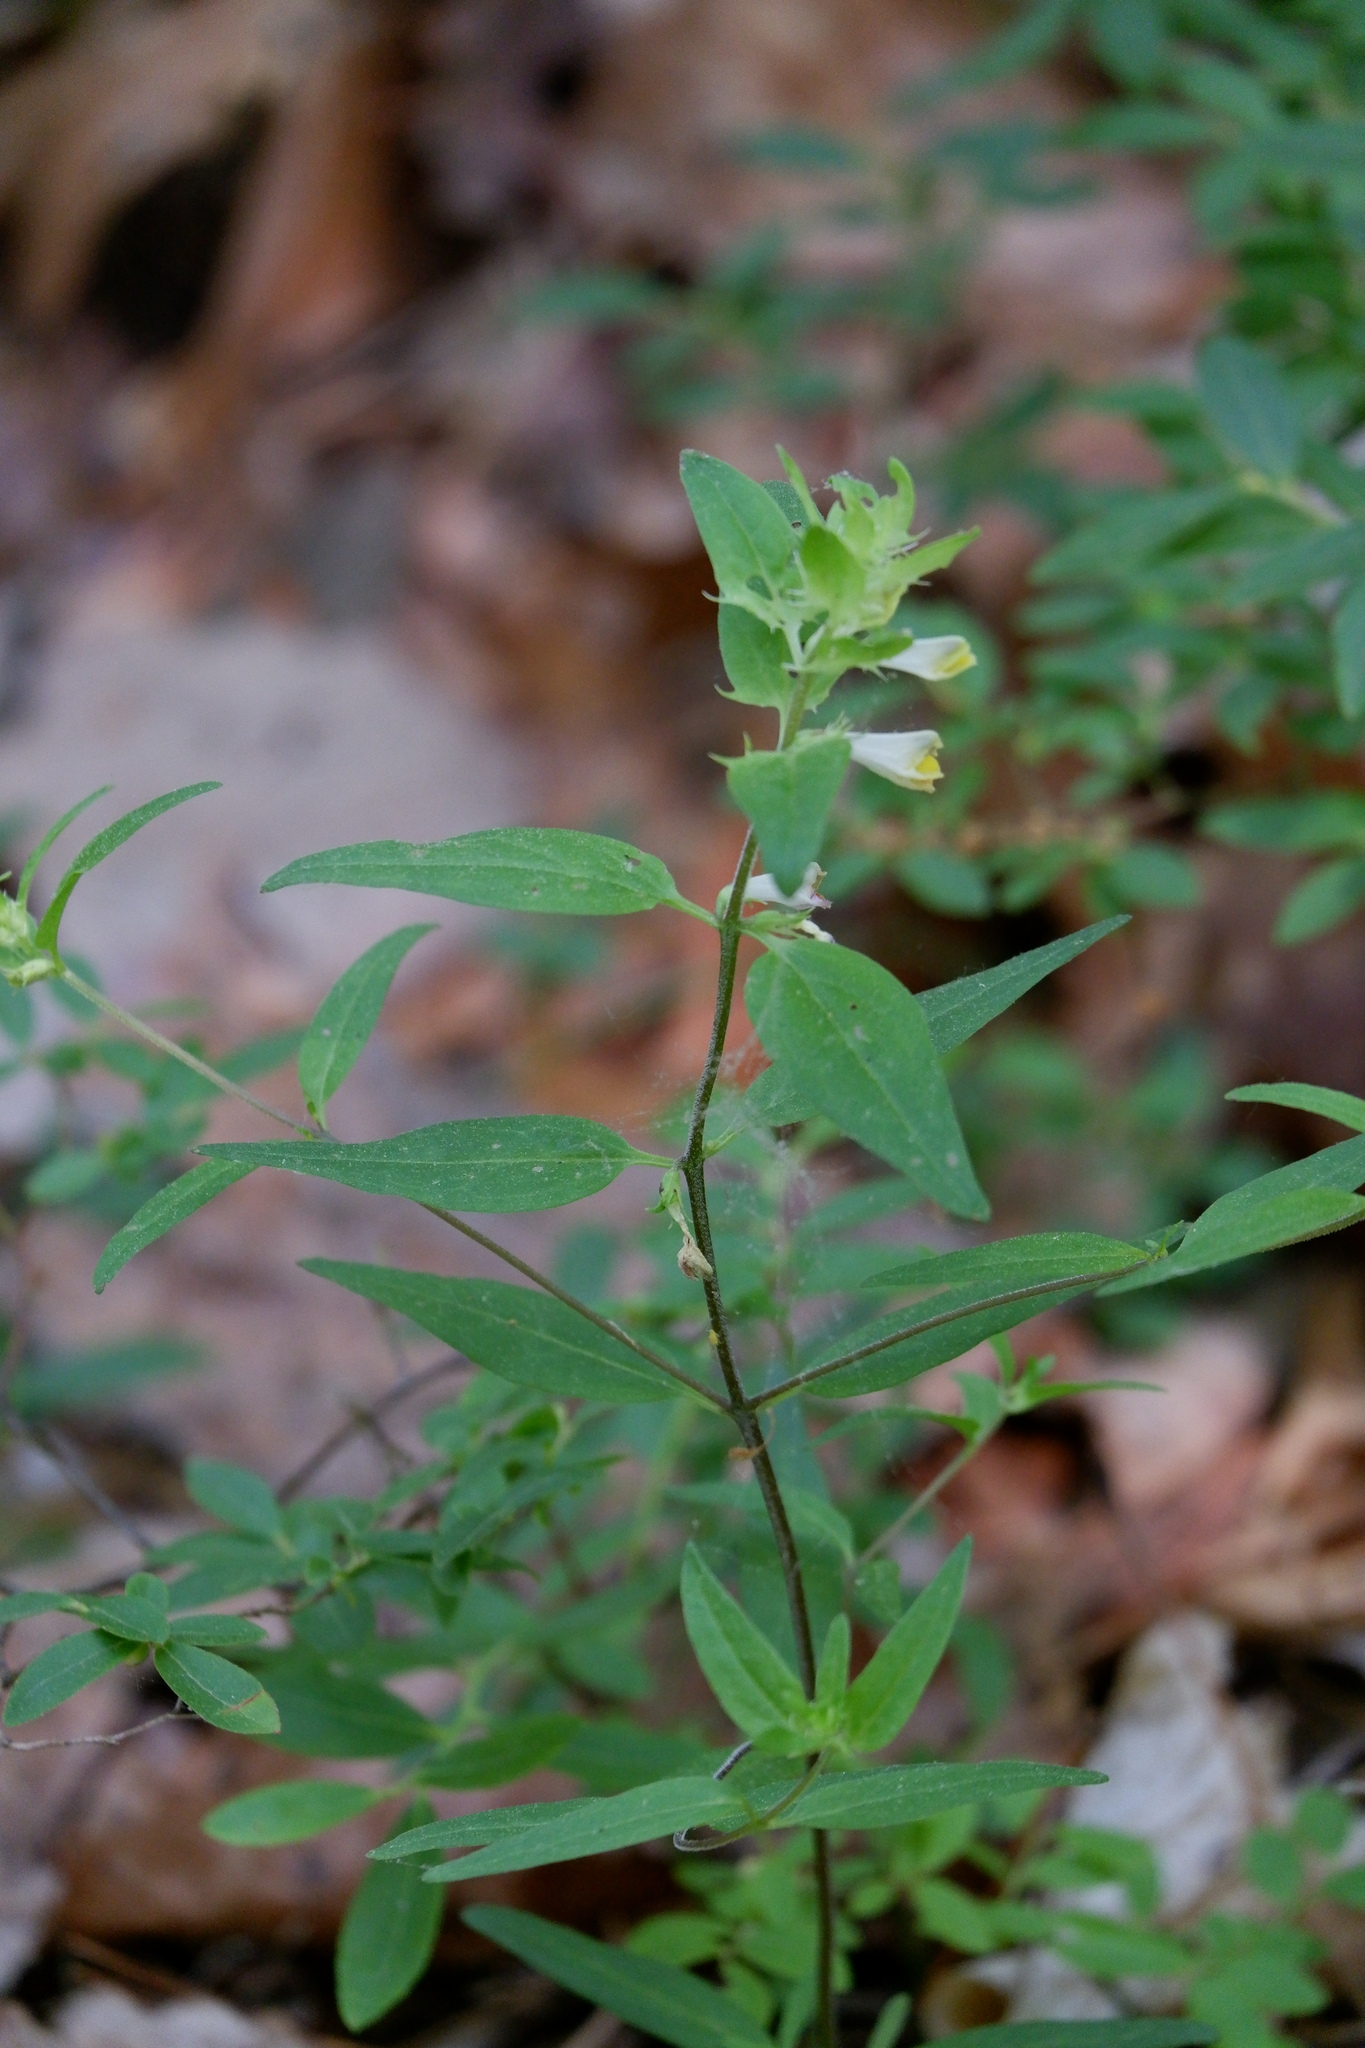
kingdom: Plantae
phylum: Tracheophyta
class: Magnoliopsida
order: Lamiales
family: Orobanchaceae
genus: Melampyrum
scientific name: Melampyrum lineare
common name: American cow-wheat
